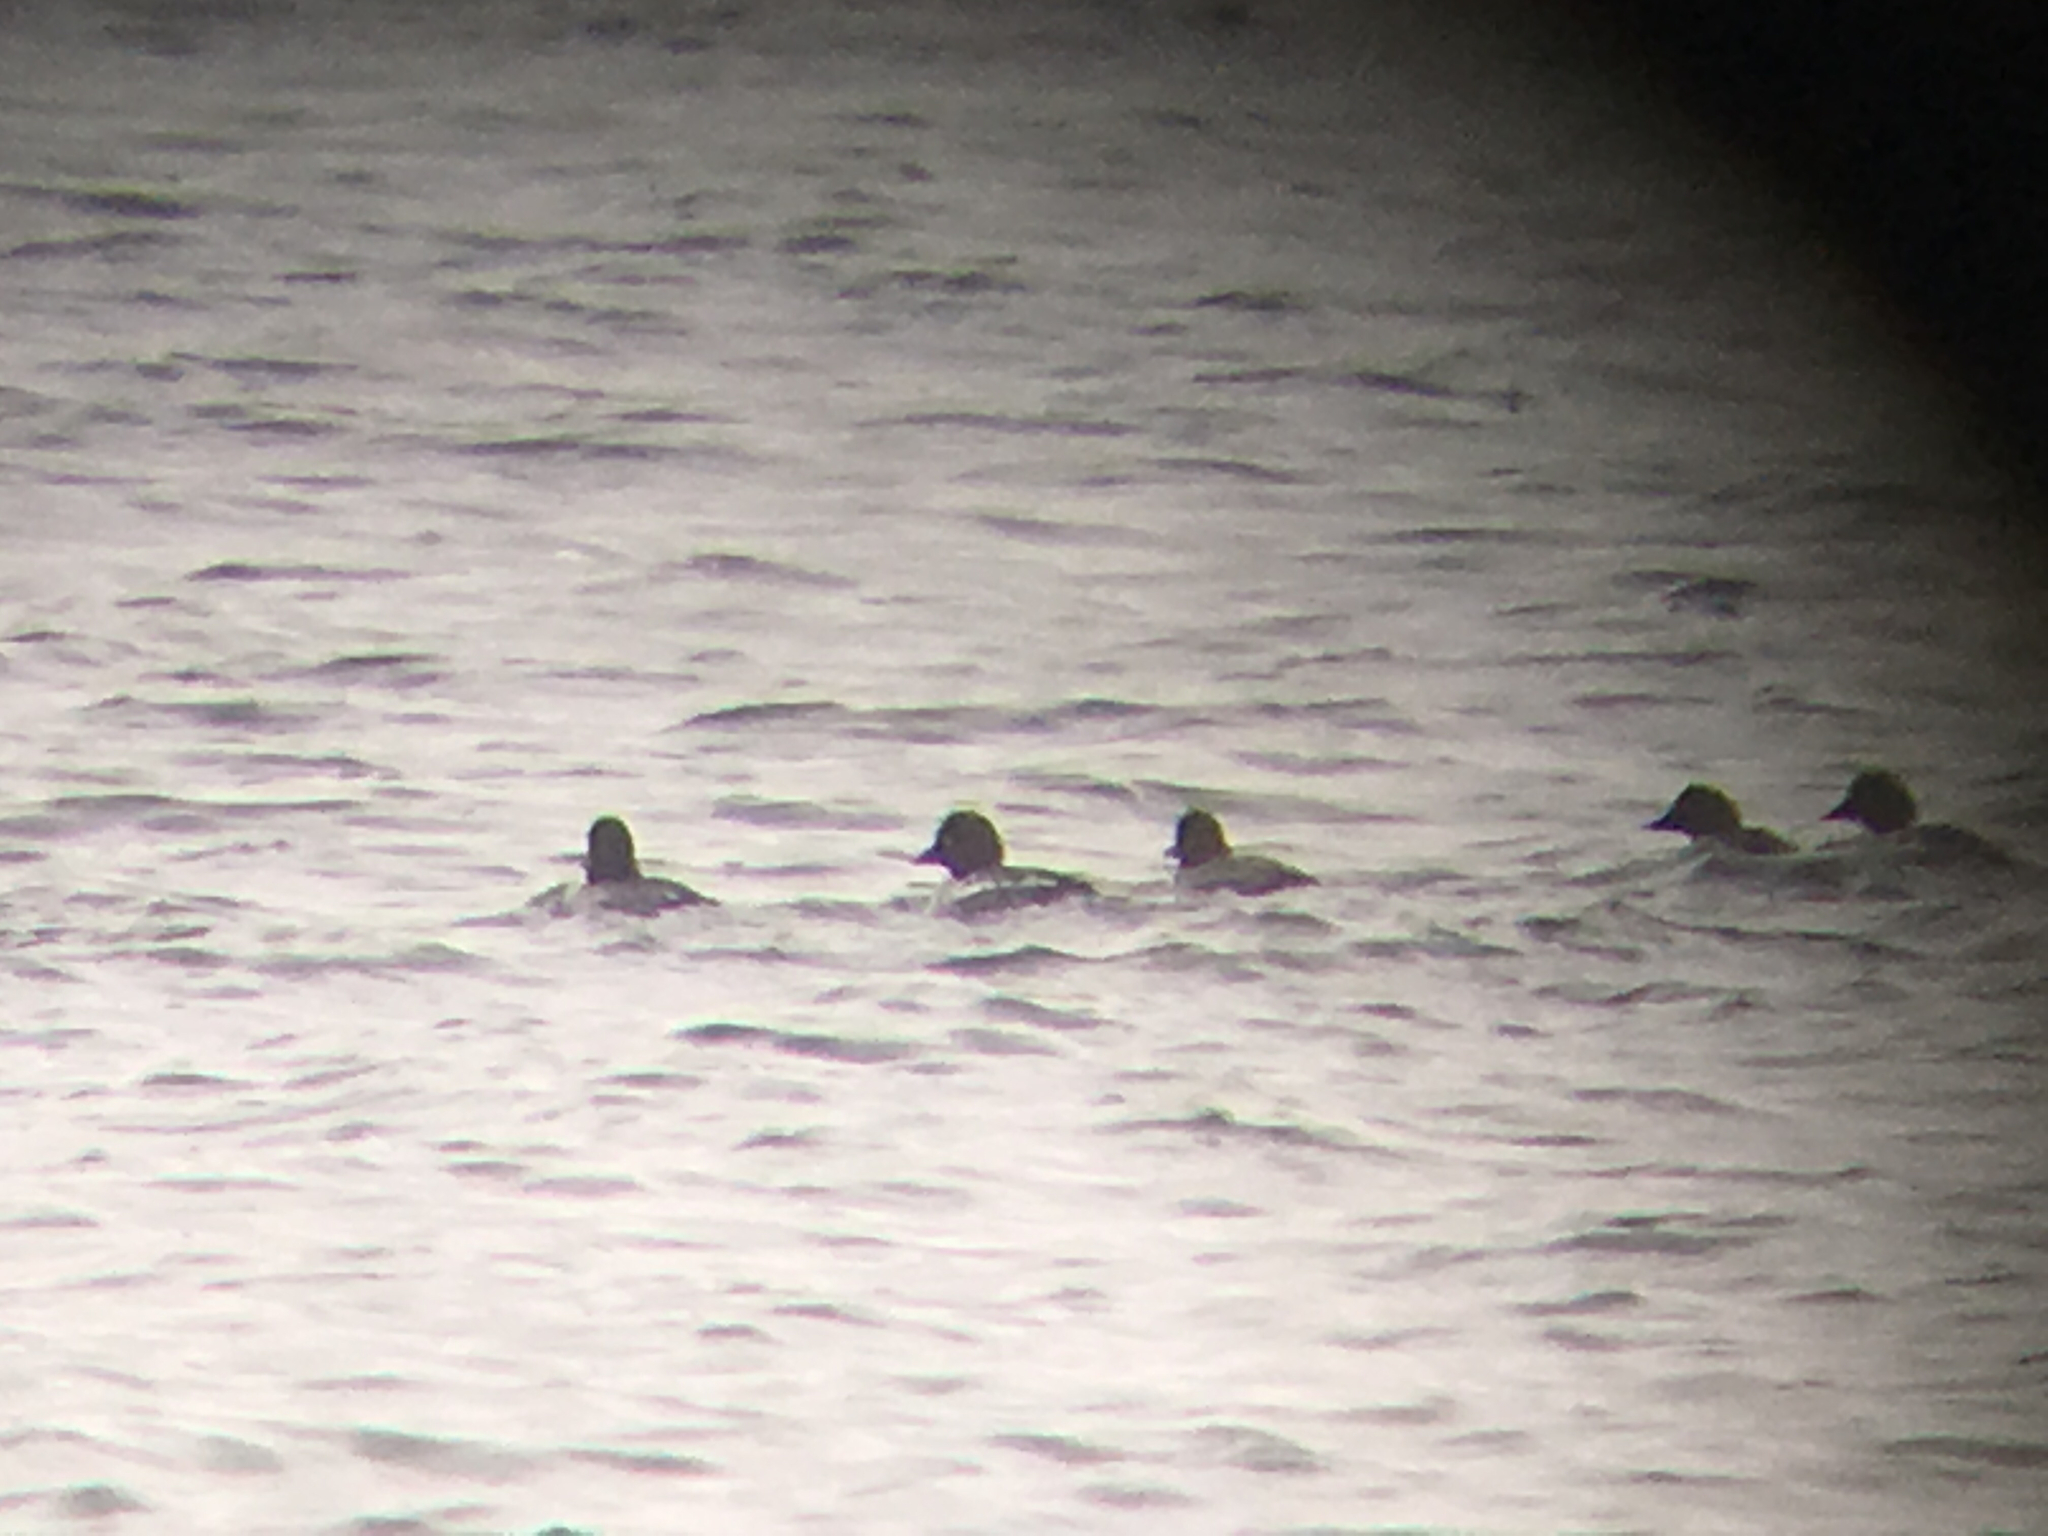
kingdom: Animalia
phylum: Chordata
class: Aves
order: Anseriformes
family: Anatidae
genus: Bucephala
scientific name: Bucephala clangula
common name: Common goldeneye
